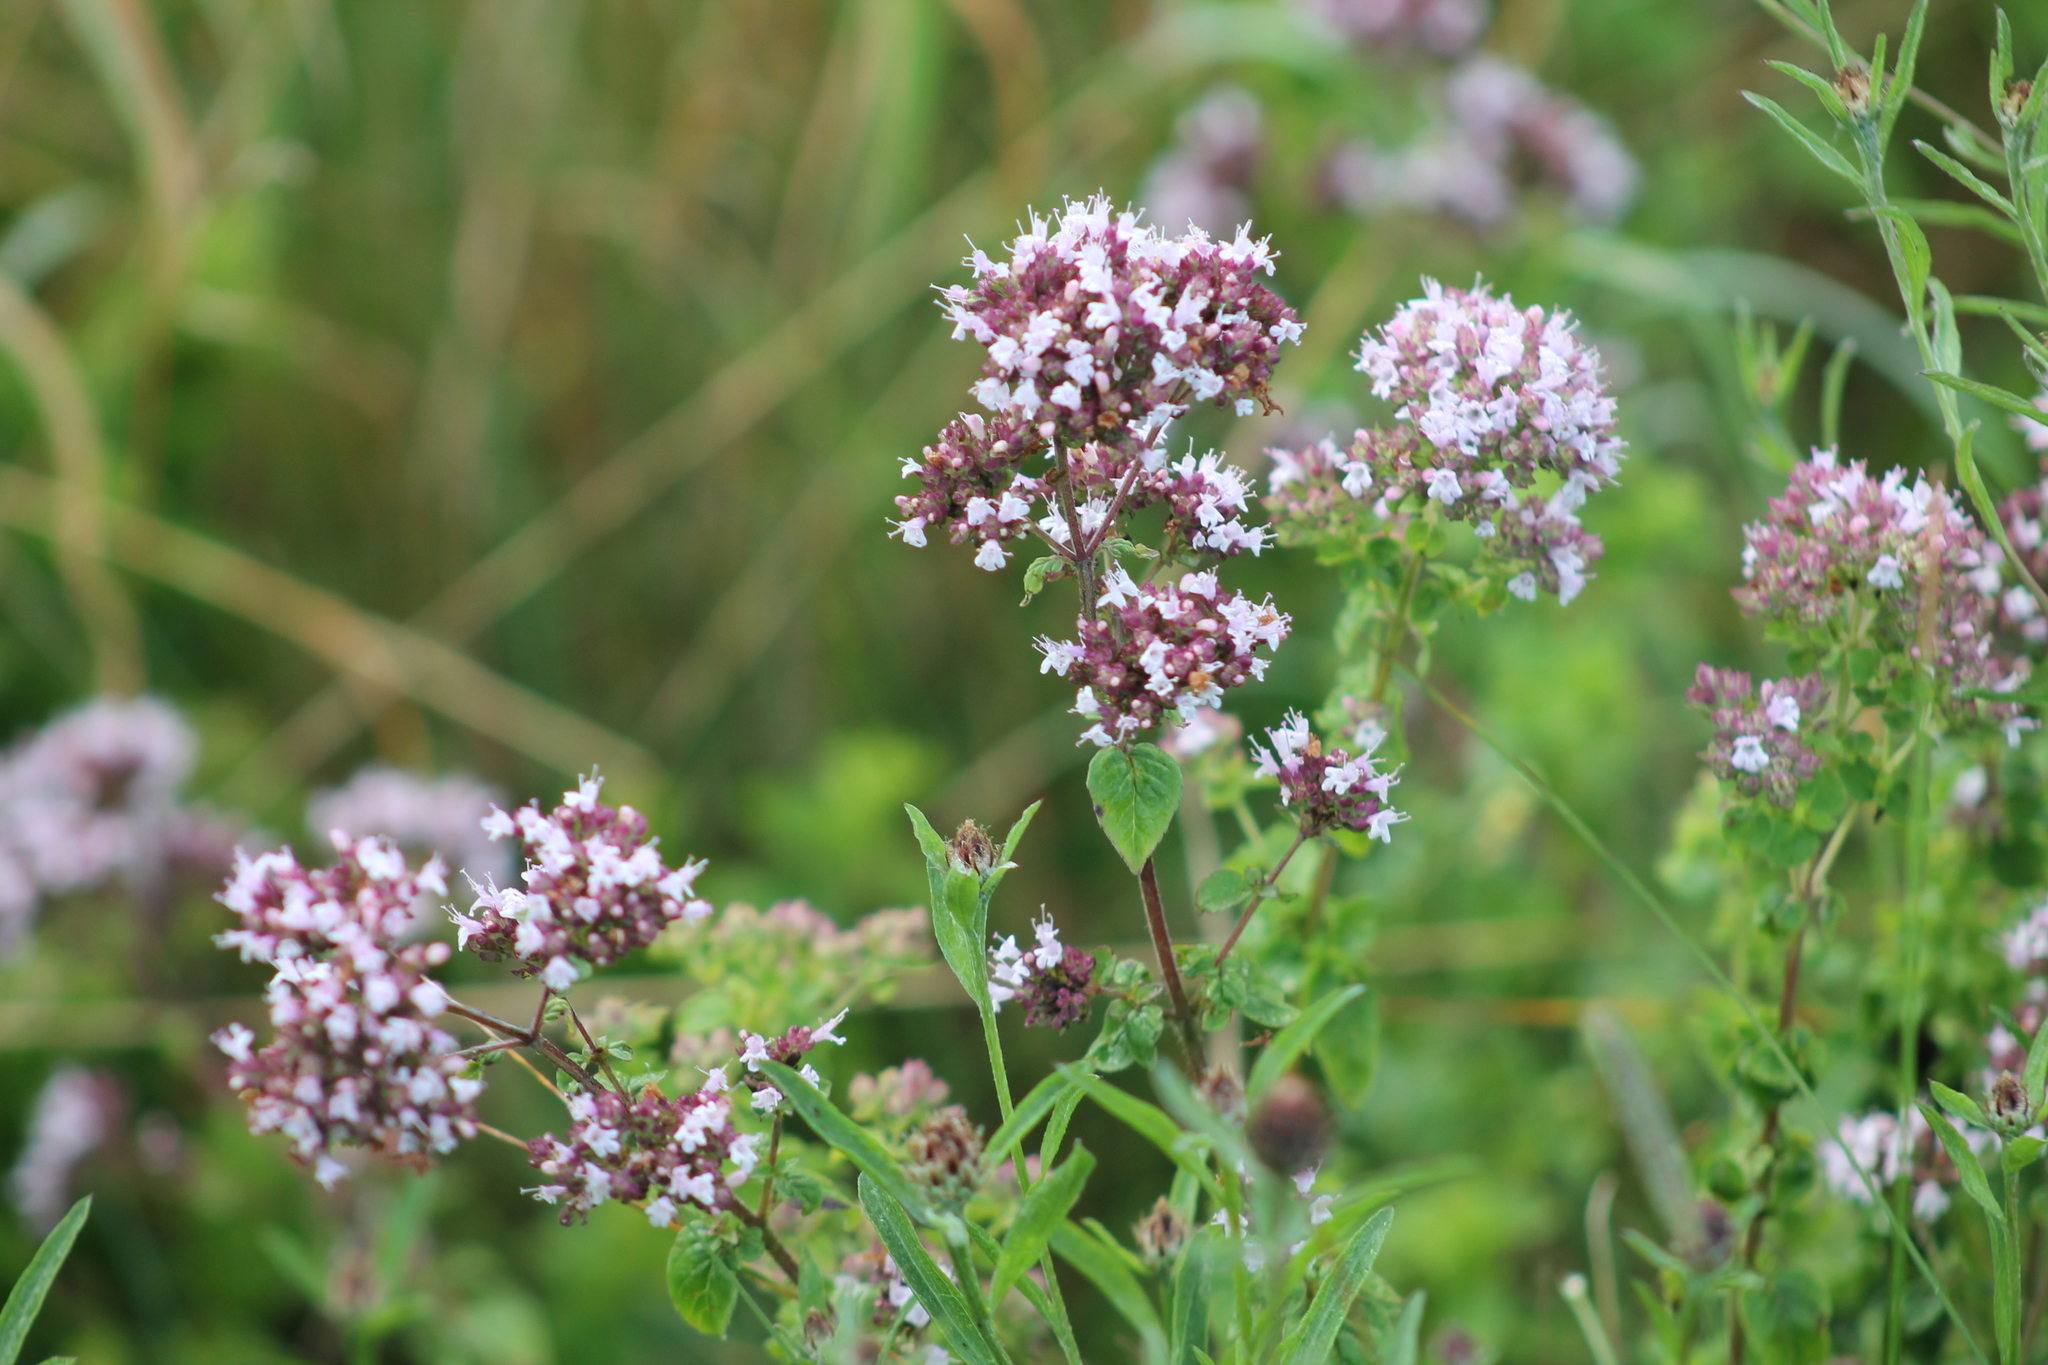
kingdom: Plantae
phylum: Tracheophyta
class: Magnoliopsida
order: Lamiales
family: Lamiaceae
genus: Origanum
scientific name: Origanum vulgare
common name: Wild marjoram
